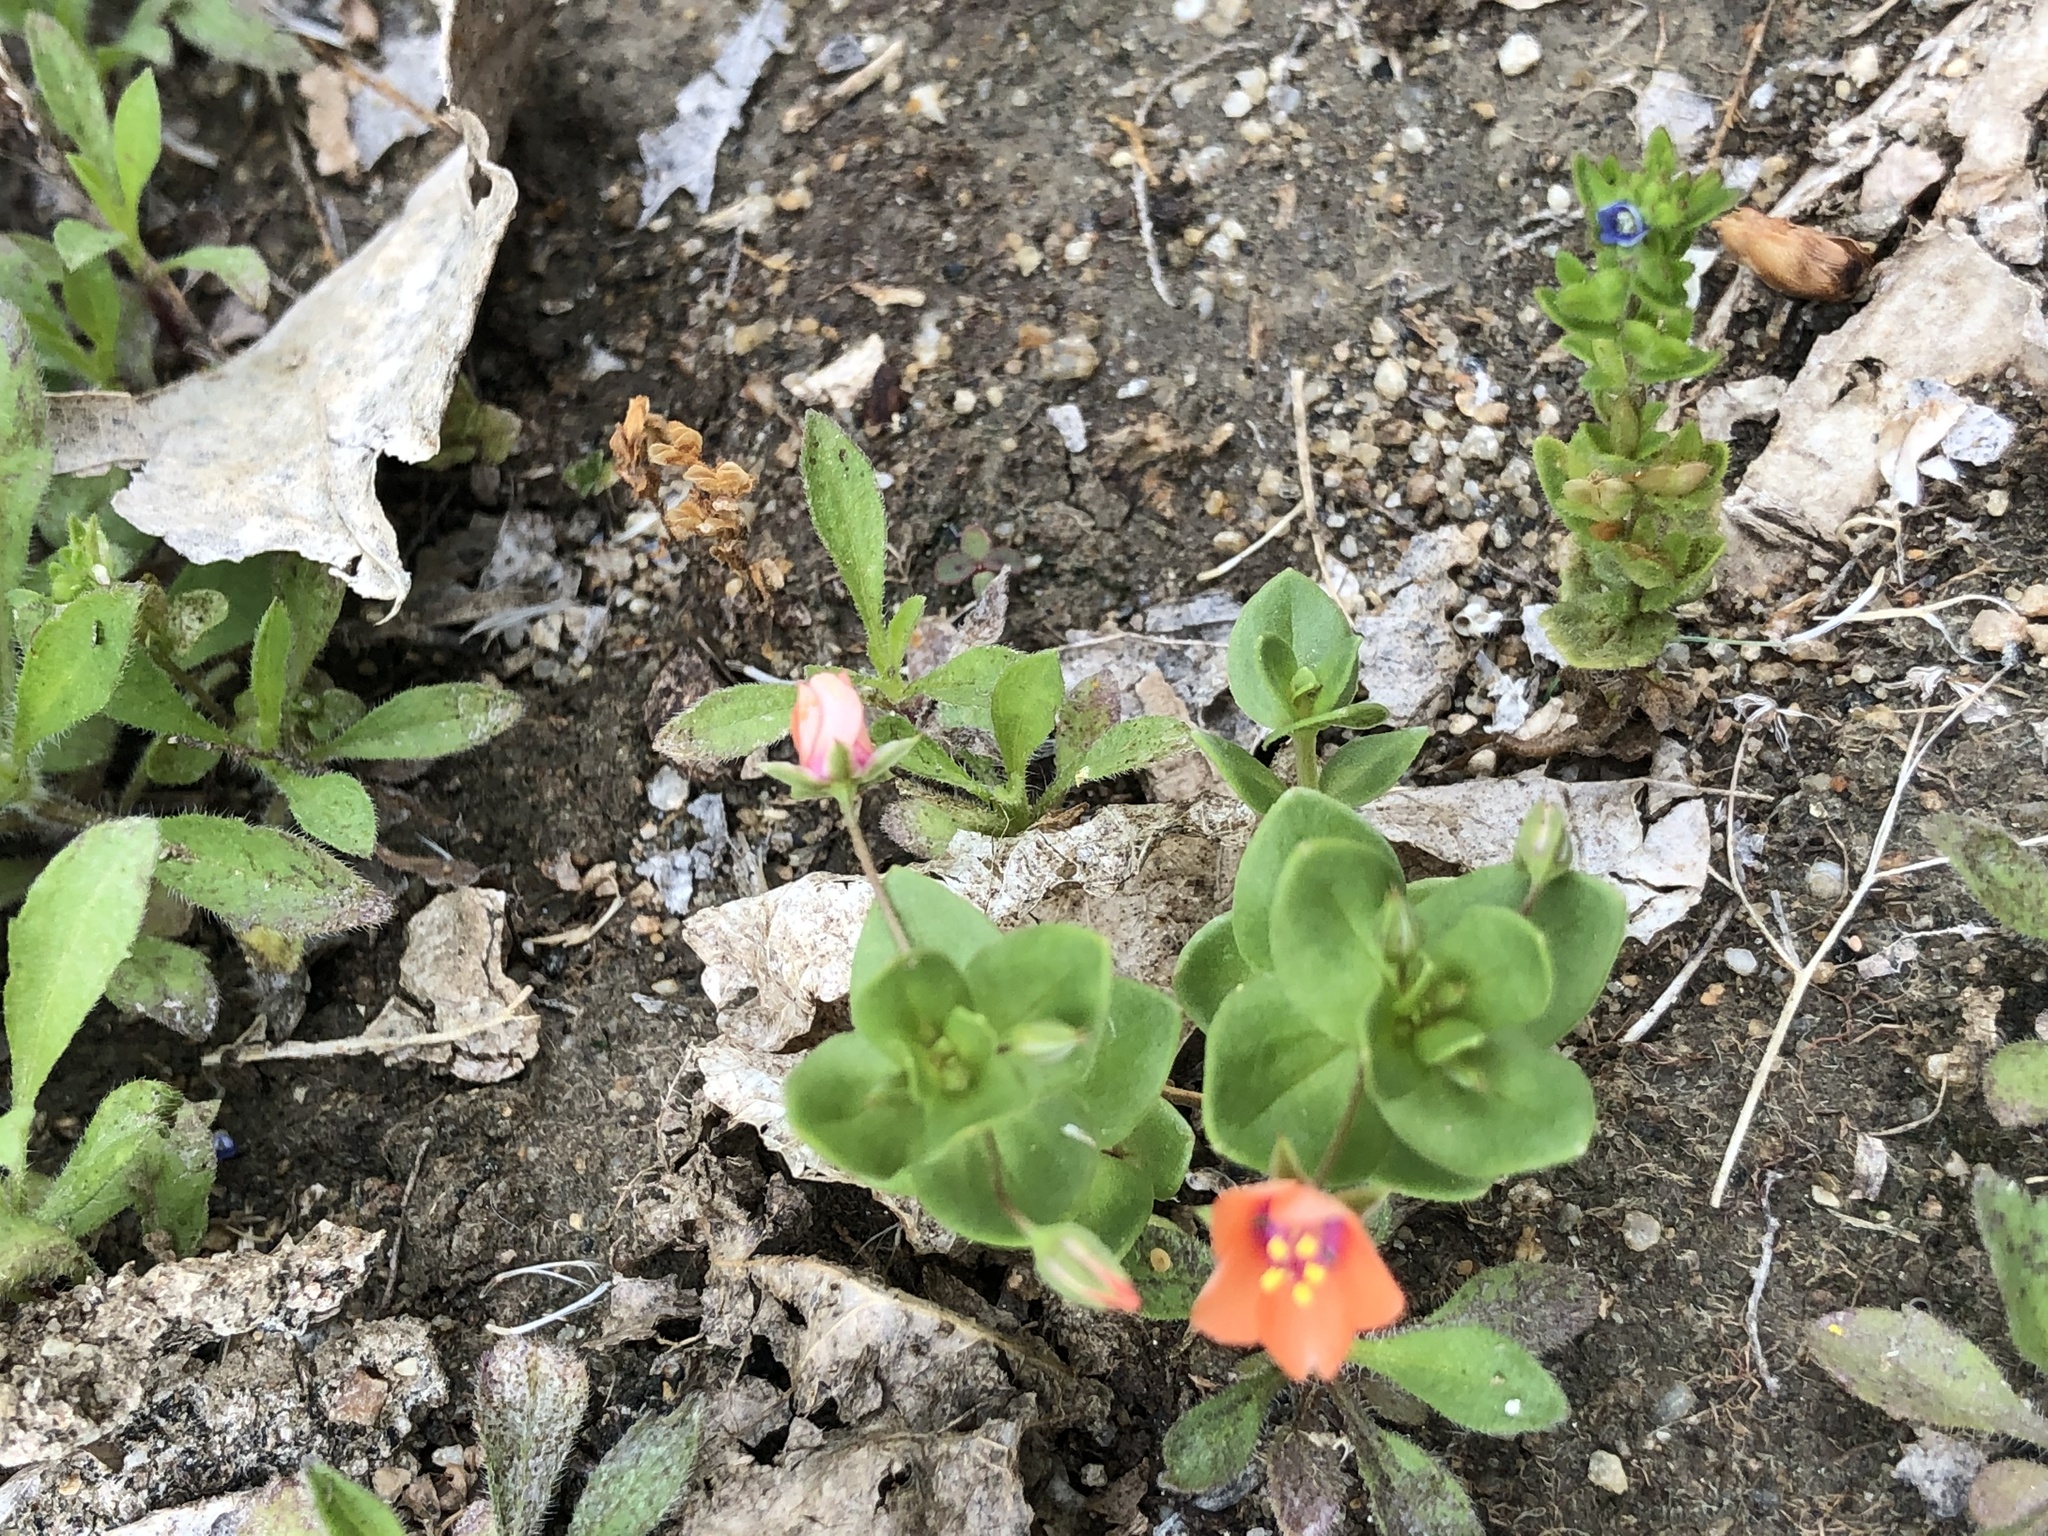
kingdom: Plantae
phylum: Tracheophyta
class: Magnoliopsida
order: Ericales
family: Primulaceae
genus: Lysimachia
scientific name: Lysimachia arvensis
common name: Scarlet pimpernel
